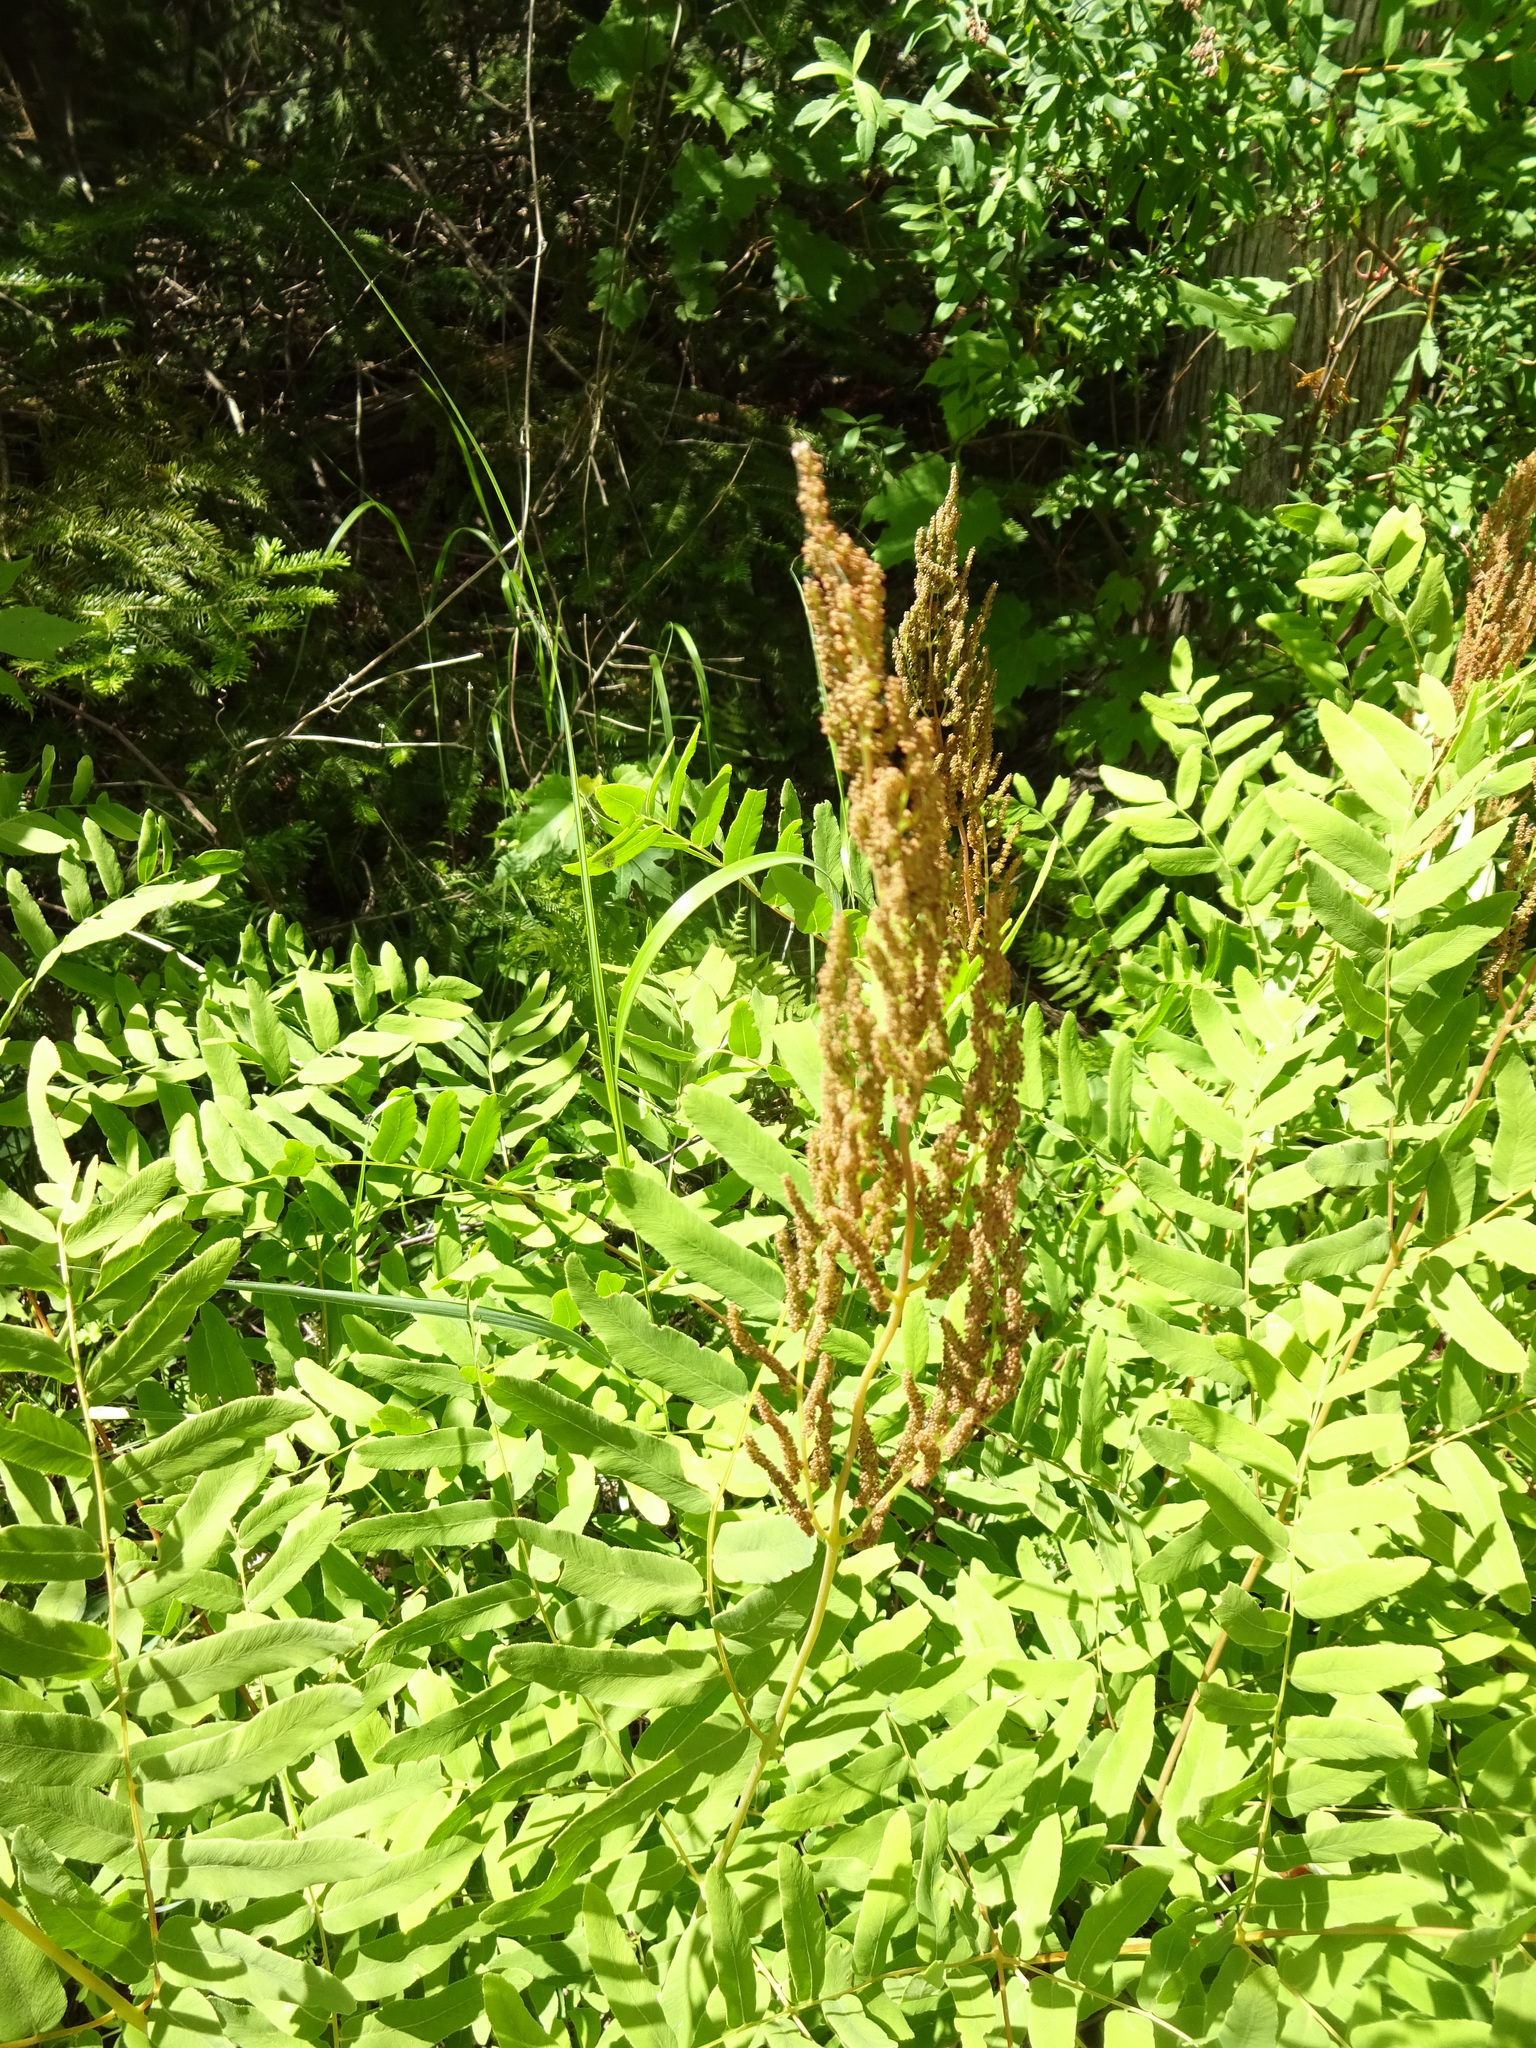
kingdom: Plantae
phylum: Tracheophyta
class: Polypodiopsida
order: Osmundales
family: Osmundaceae
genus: Osmunda
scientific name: Osmunda spectabilis
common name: American royal fern
